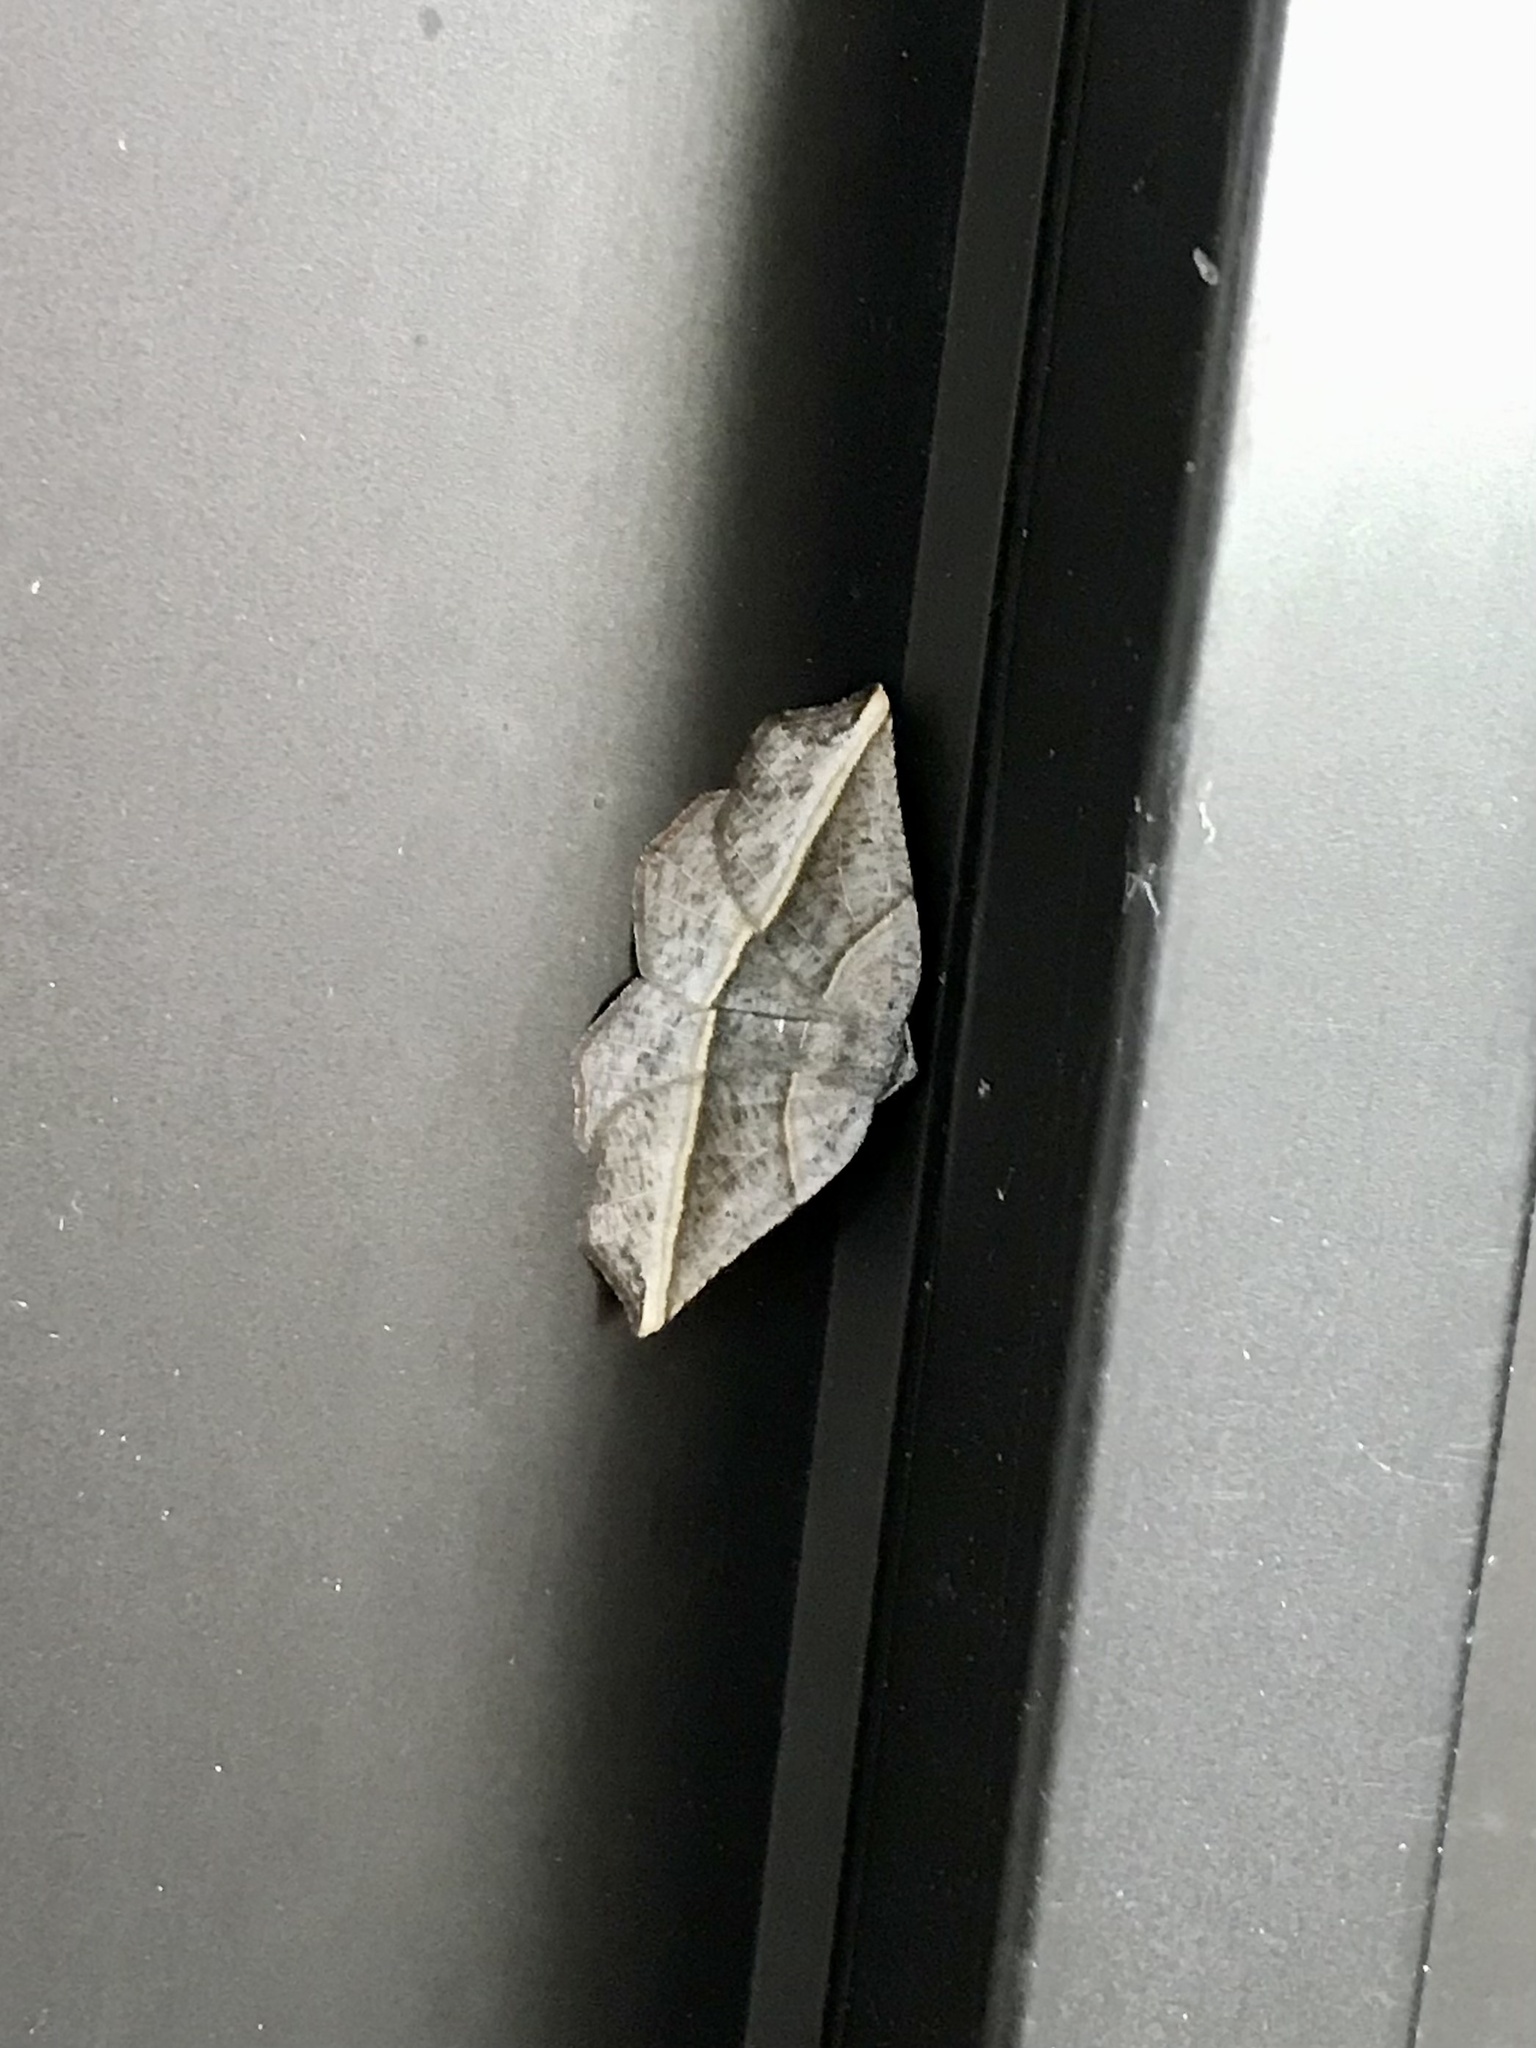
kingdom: Animalia
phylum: Arthropoda
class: Insecta
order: Lepidoptera
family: Geometridae
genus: Metanema
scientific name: Metanema determinata
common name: Dark metanema
